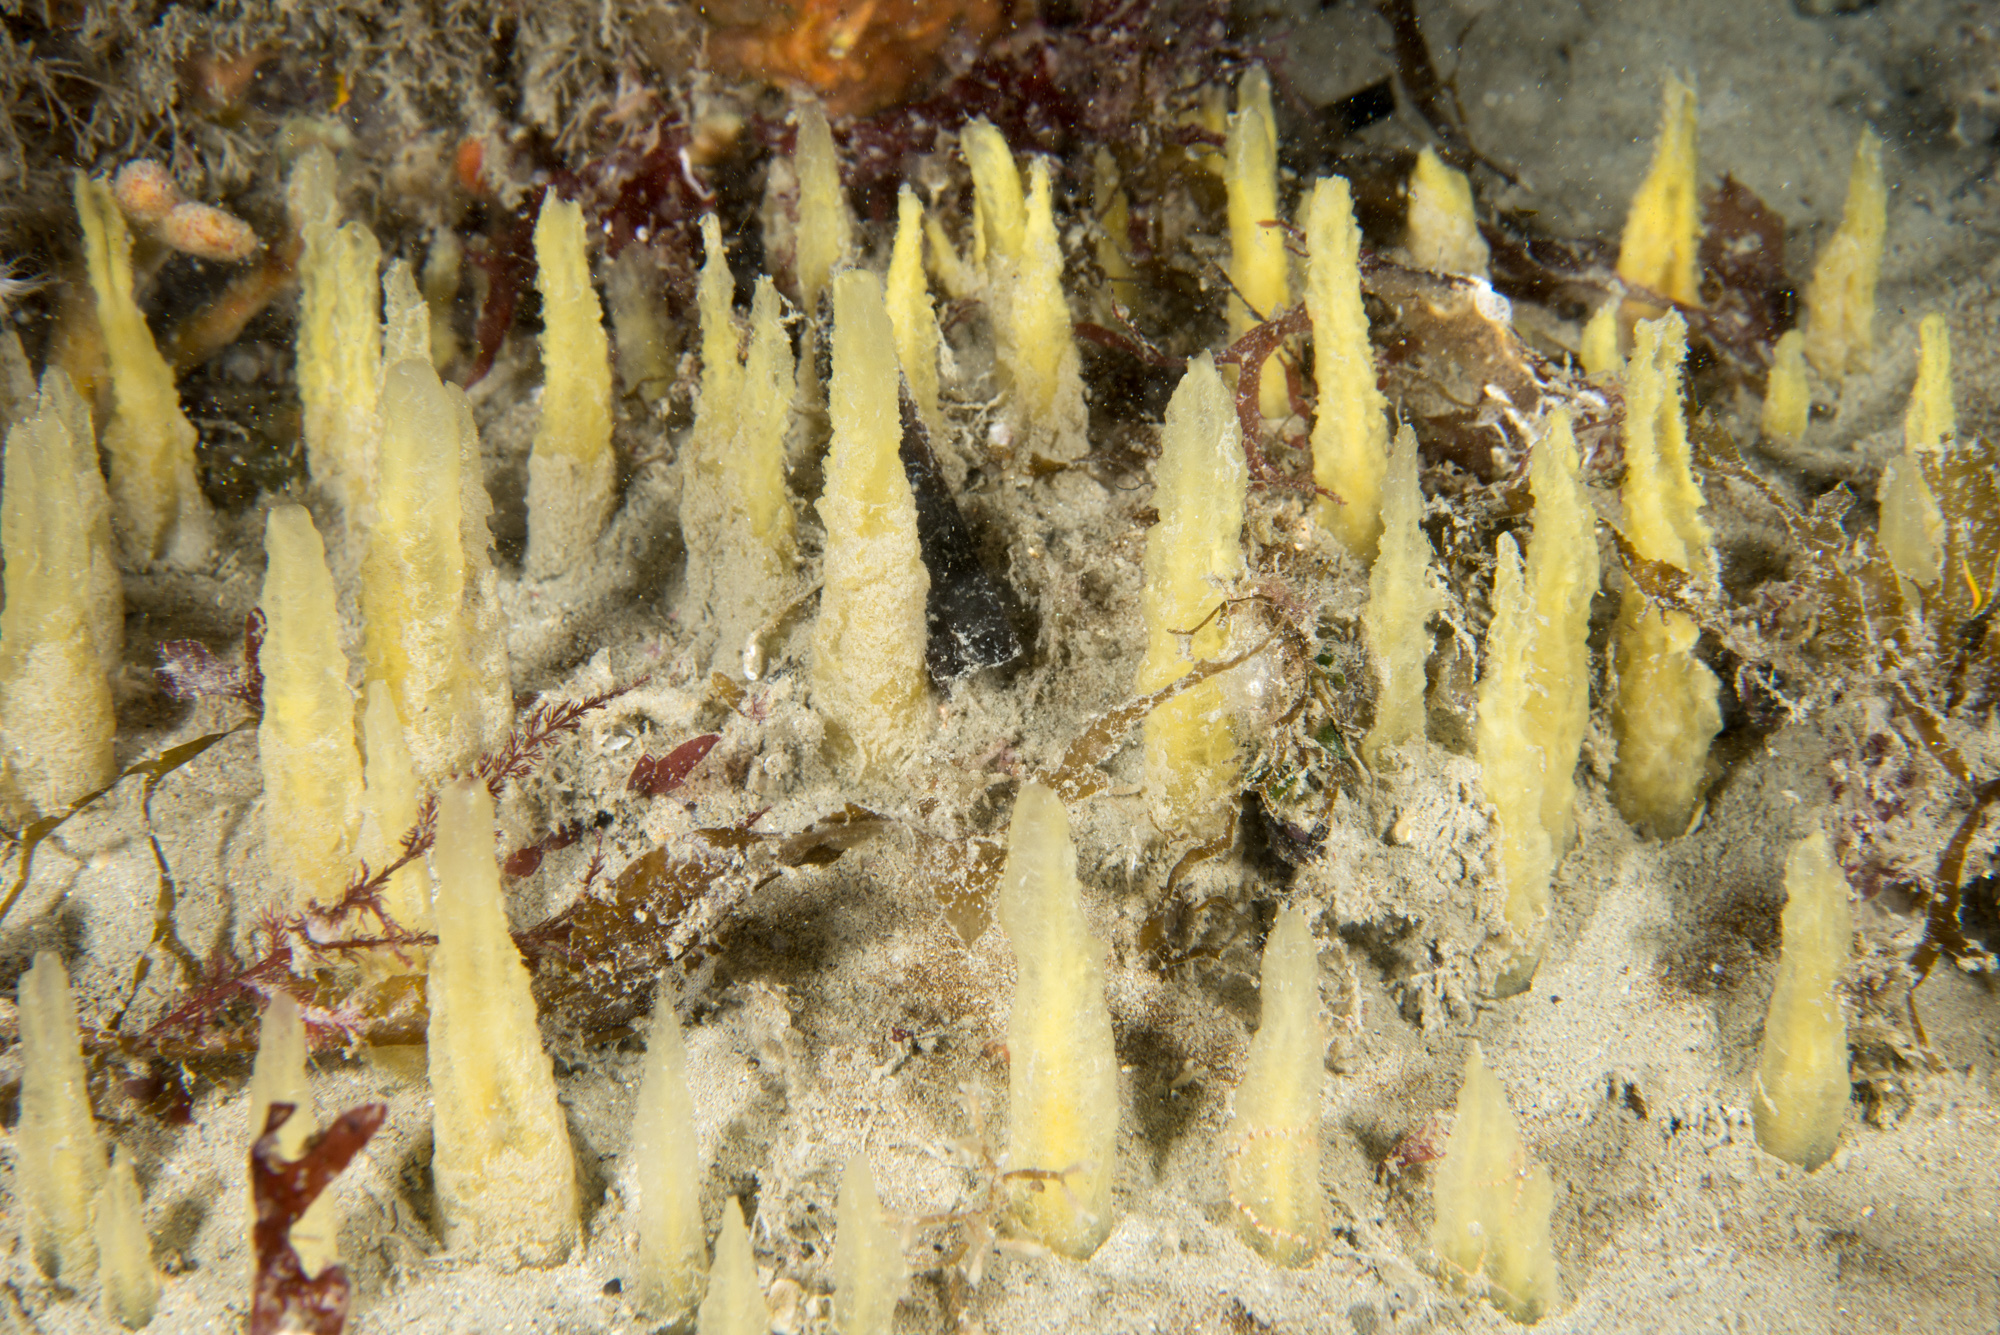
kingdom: Animalia
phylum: Porifera
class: Demospongiae
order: Suberitida
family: Halichondriidae
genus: Ciocalypta
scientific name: Ciocalypta penicillus
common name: Brush sponge
